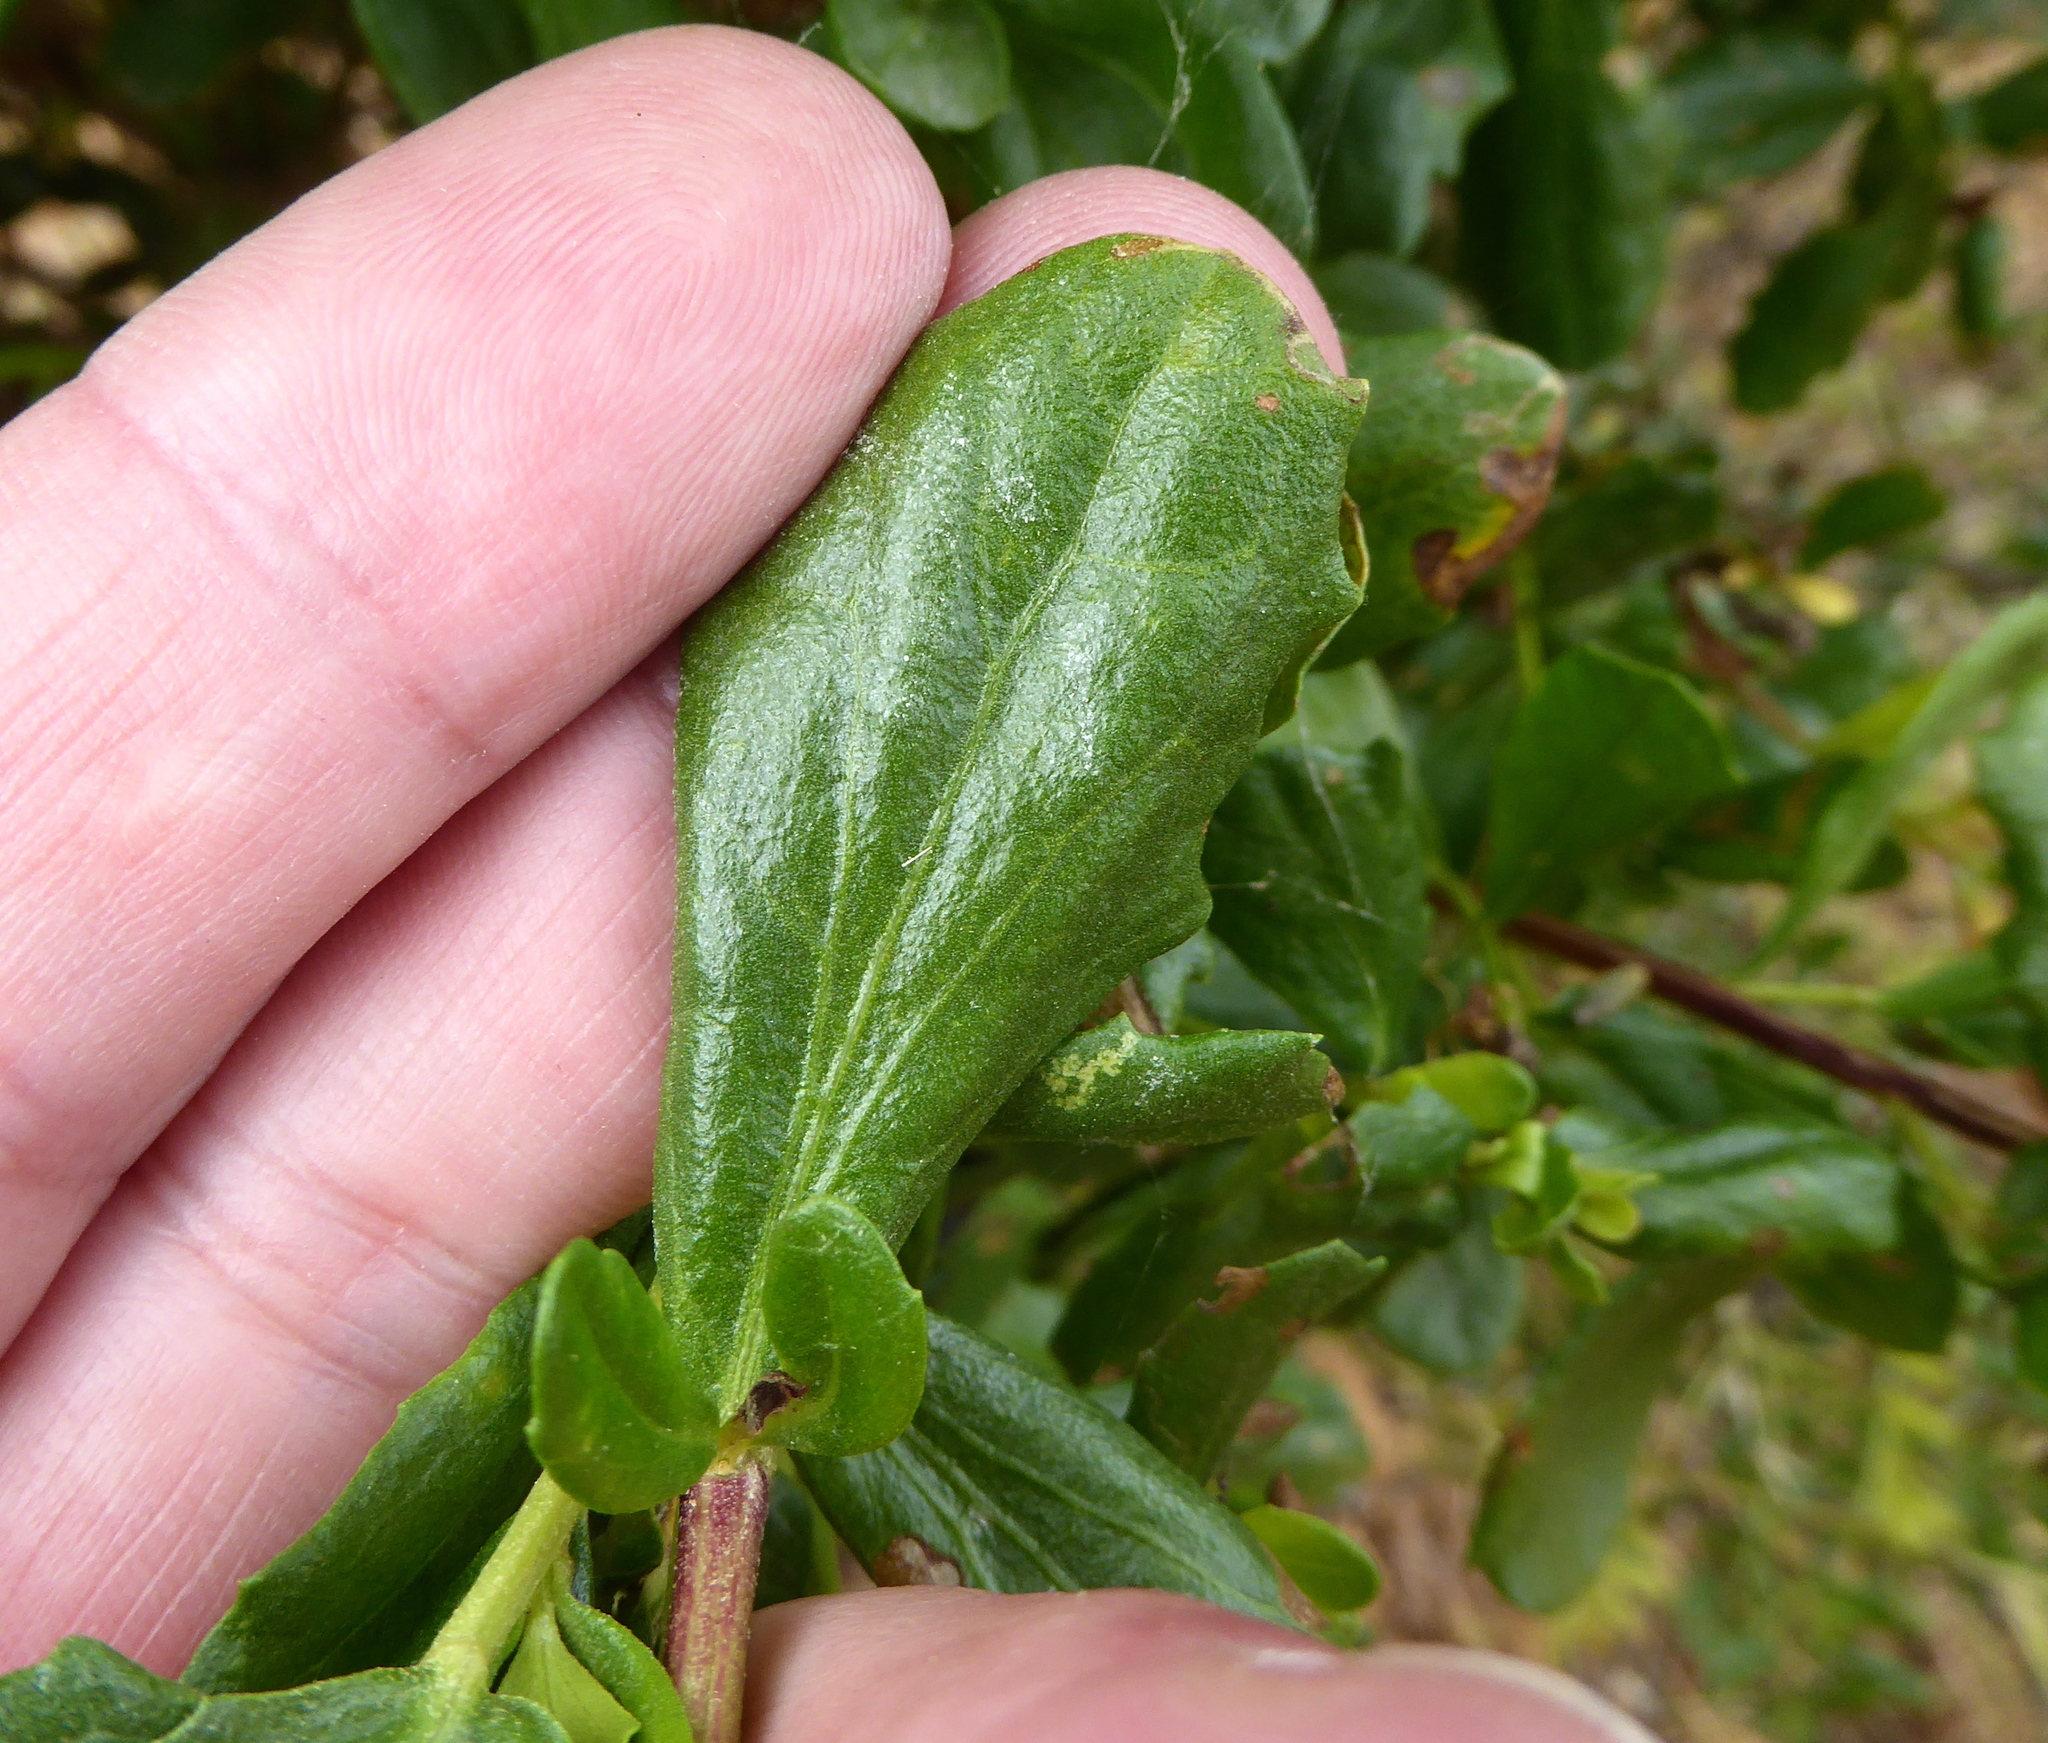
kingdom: Plantae
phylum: Tracheophyta
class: Magnoliopsida
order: Asterales
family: Asteraceae
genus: Baccharis
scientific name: Baccharis pilularis
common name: Coyotebrush
